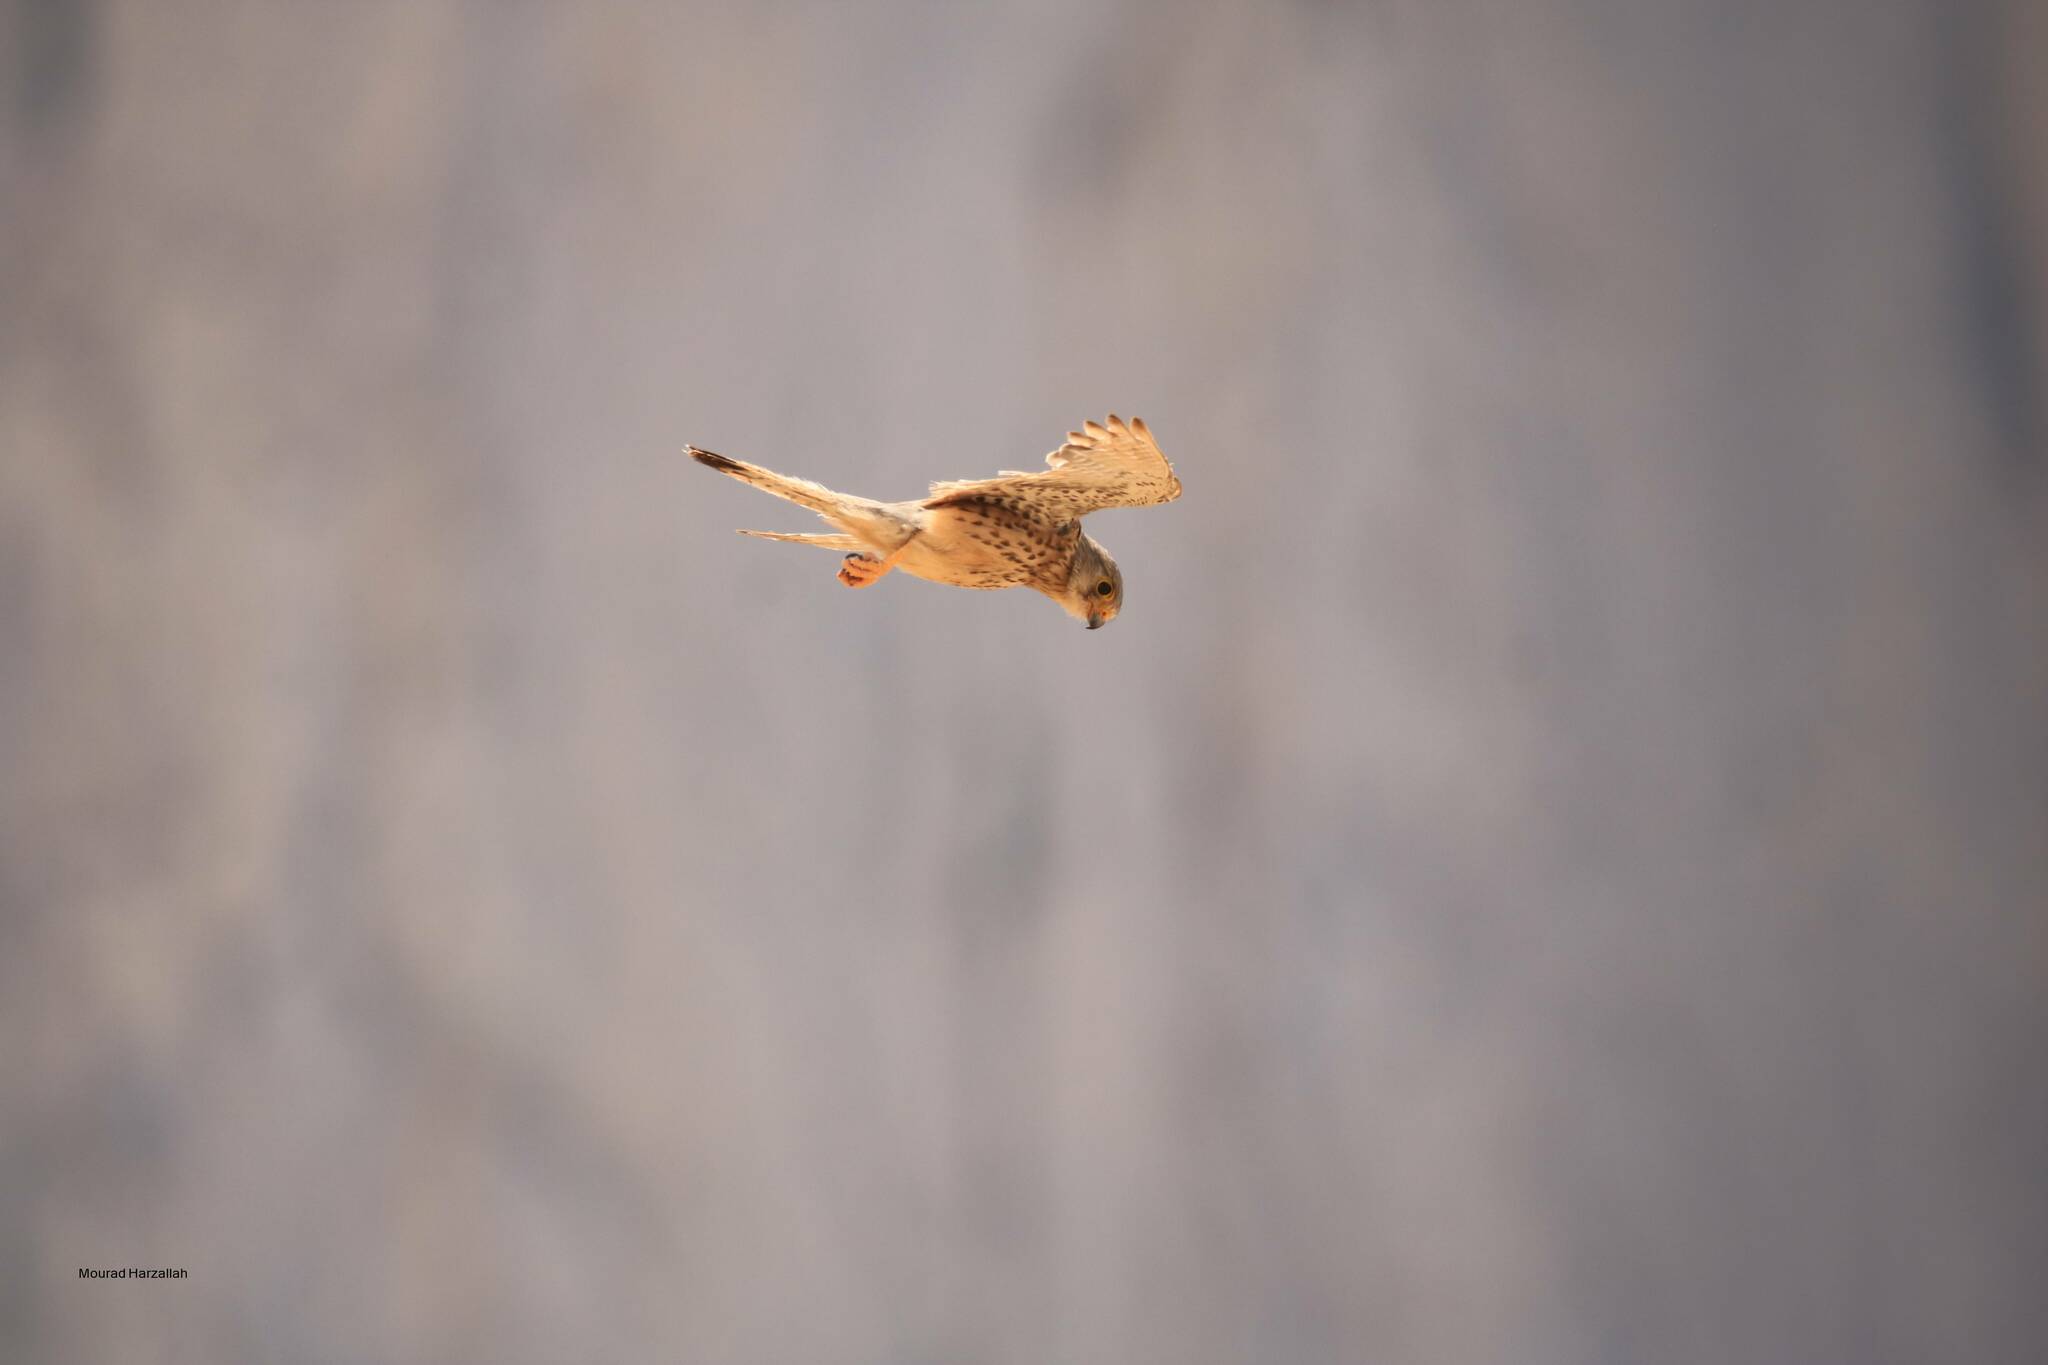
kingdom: Animalia
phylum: Chordata
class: Aves
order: Falconiformes
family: Falconidae
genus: Falco
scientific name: Falco tinnunculus
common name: Common kestrel
